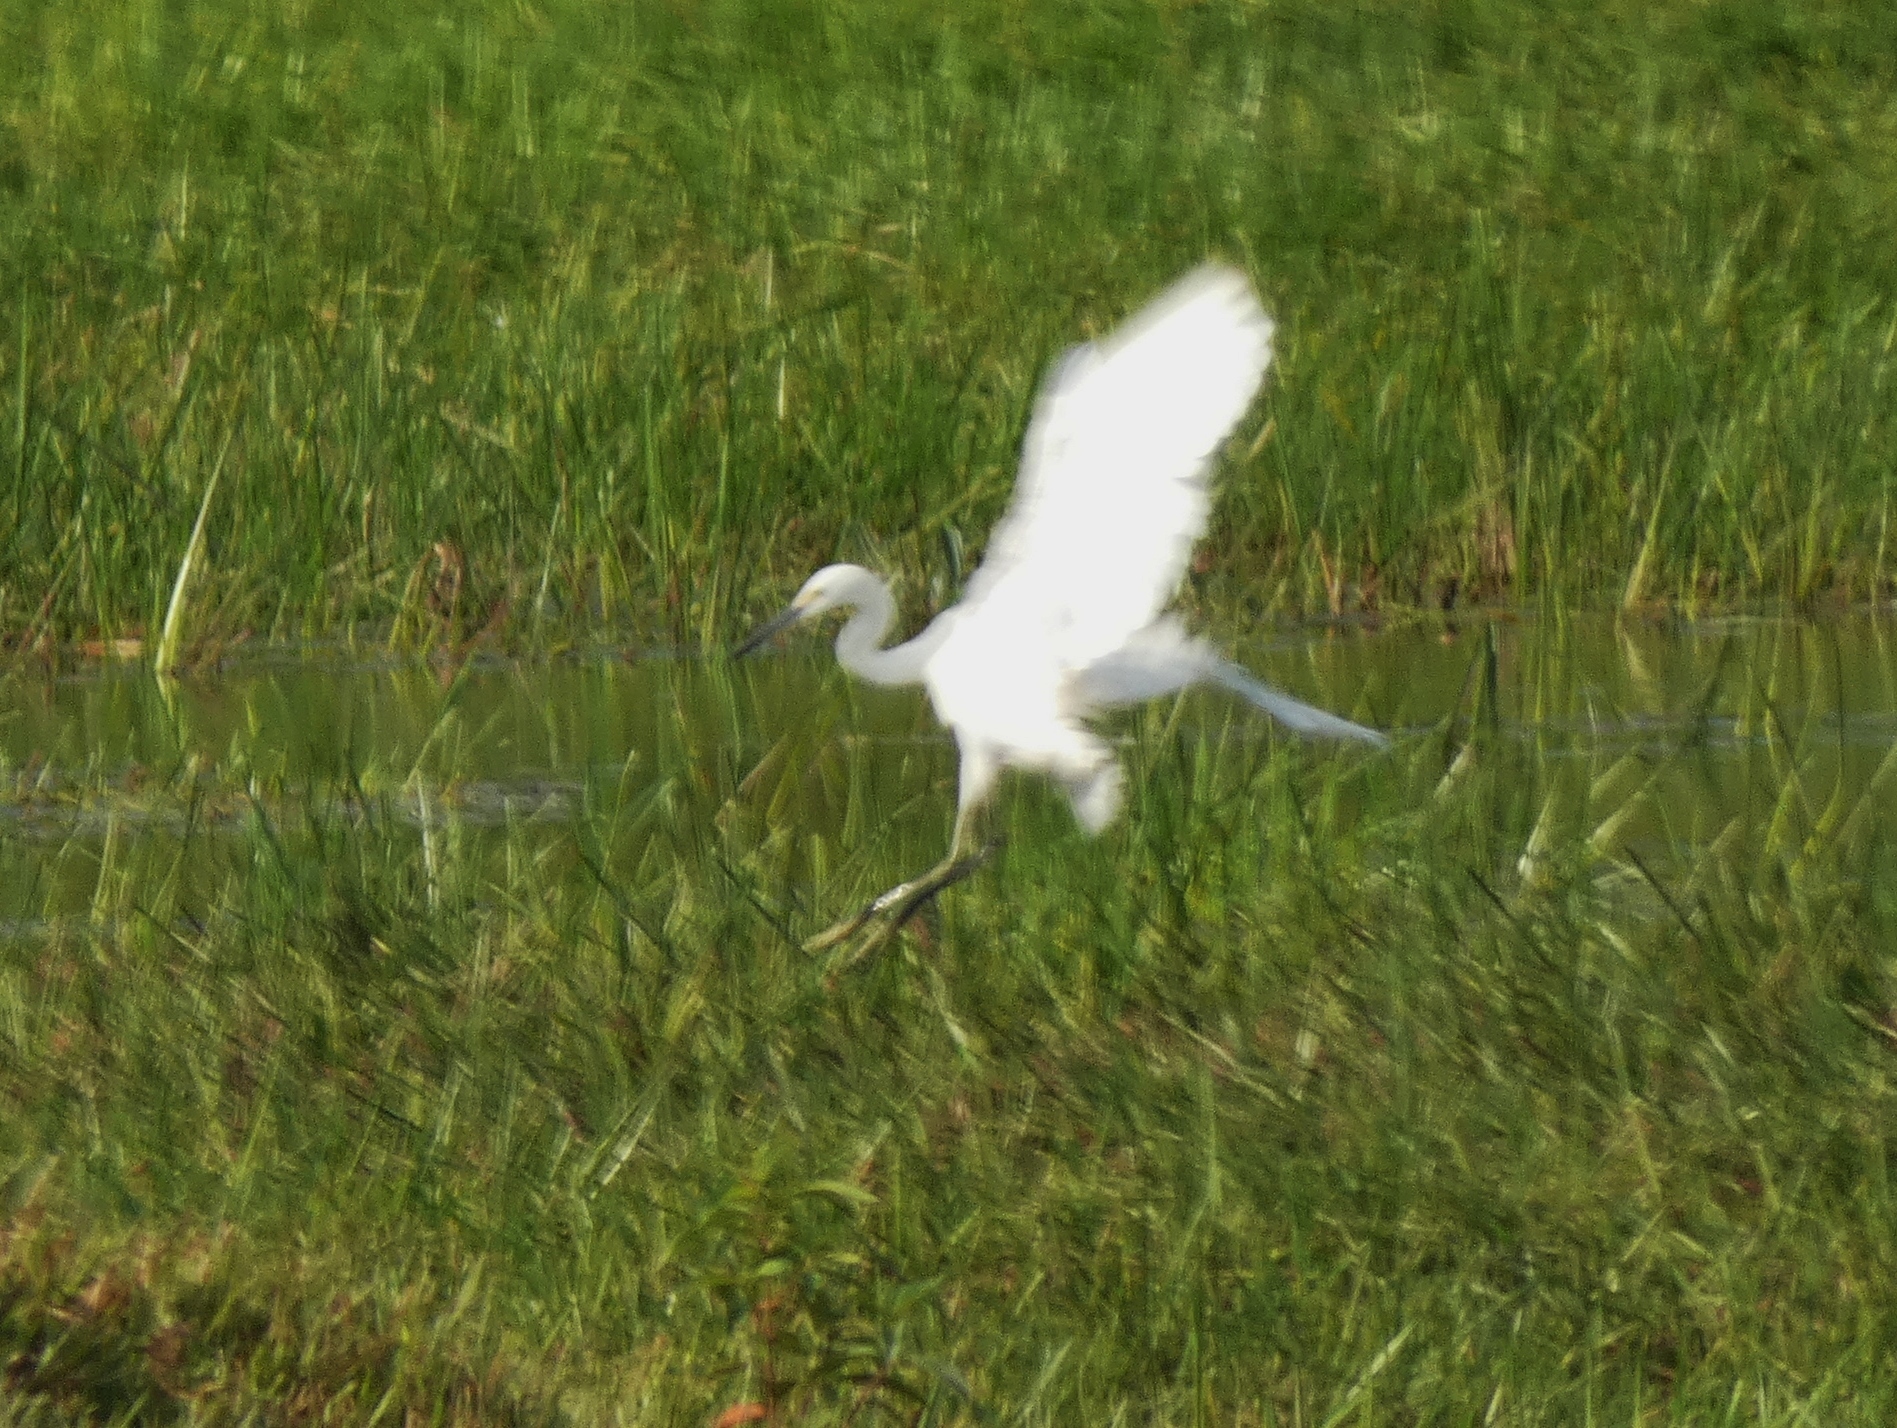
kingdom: Animalia
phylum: Chordata
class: Aves
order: Pelecaniformes
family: Ardeidae
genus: Egretta
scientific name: Egretta garzetta
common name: Little egret
